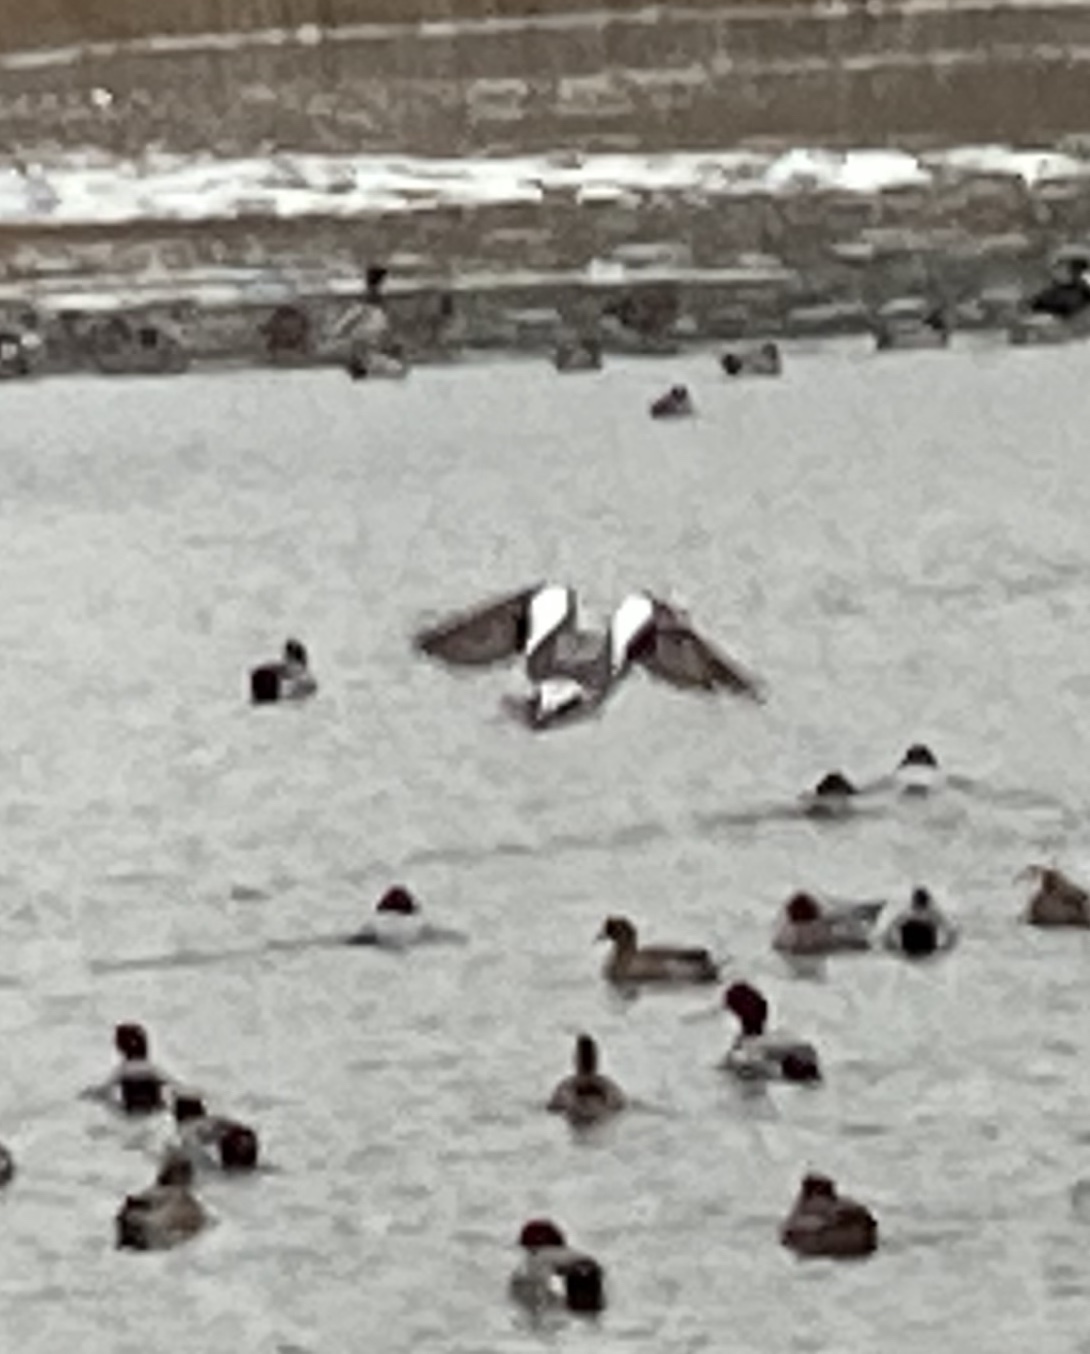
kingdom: Animalia
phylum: Chordata
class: Aves
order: Anseriformes
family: Anatidae
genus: Mareca
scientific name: Mareca penelope
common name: Eurasian wigeon
